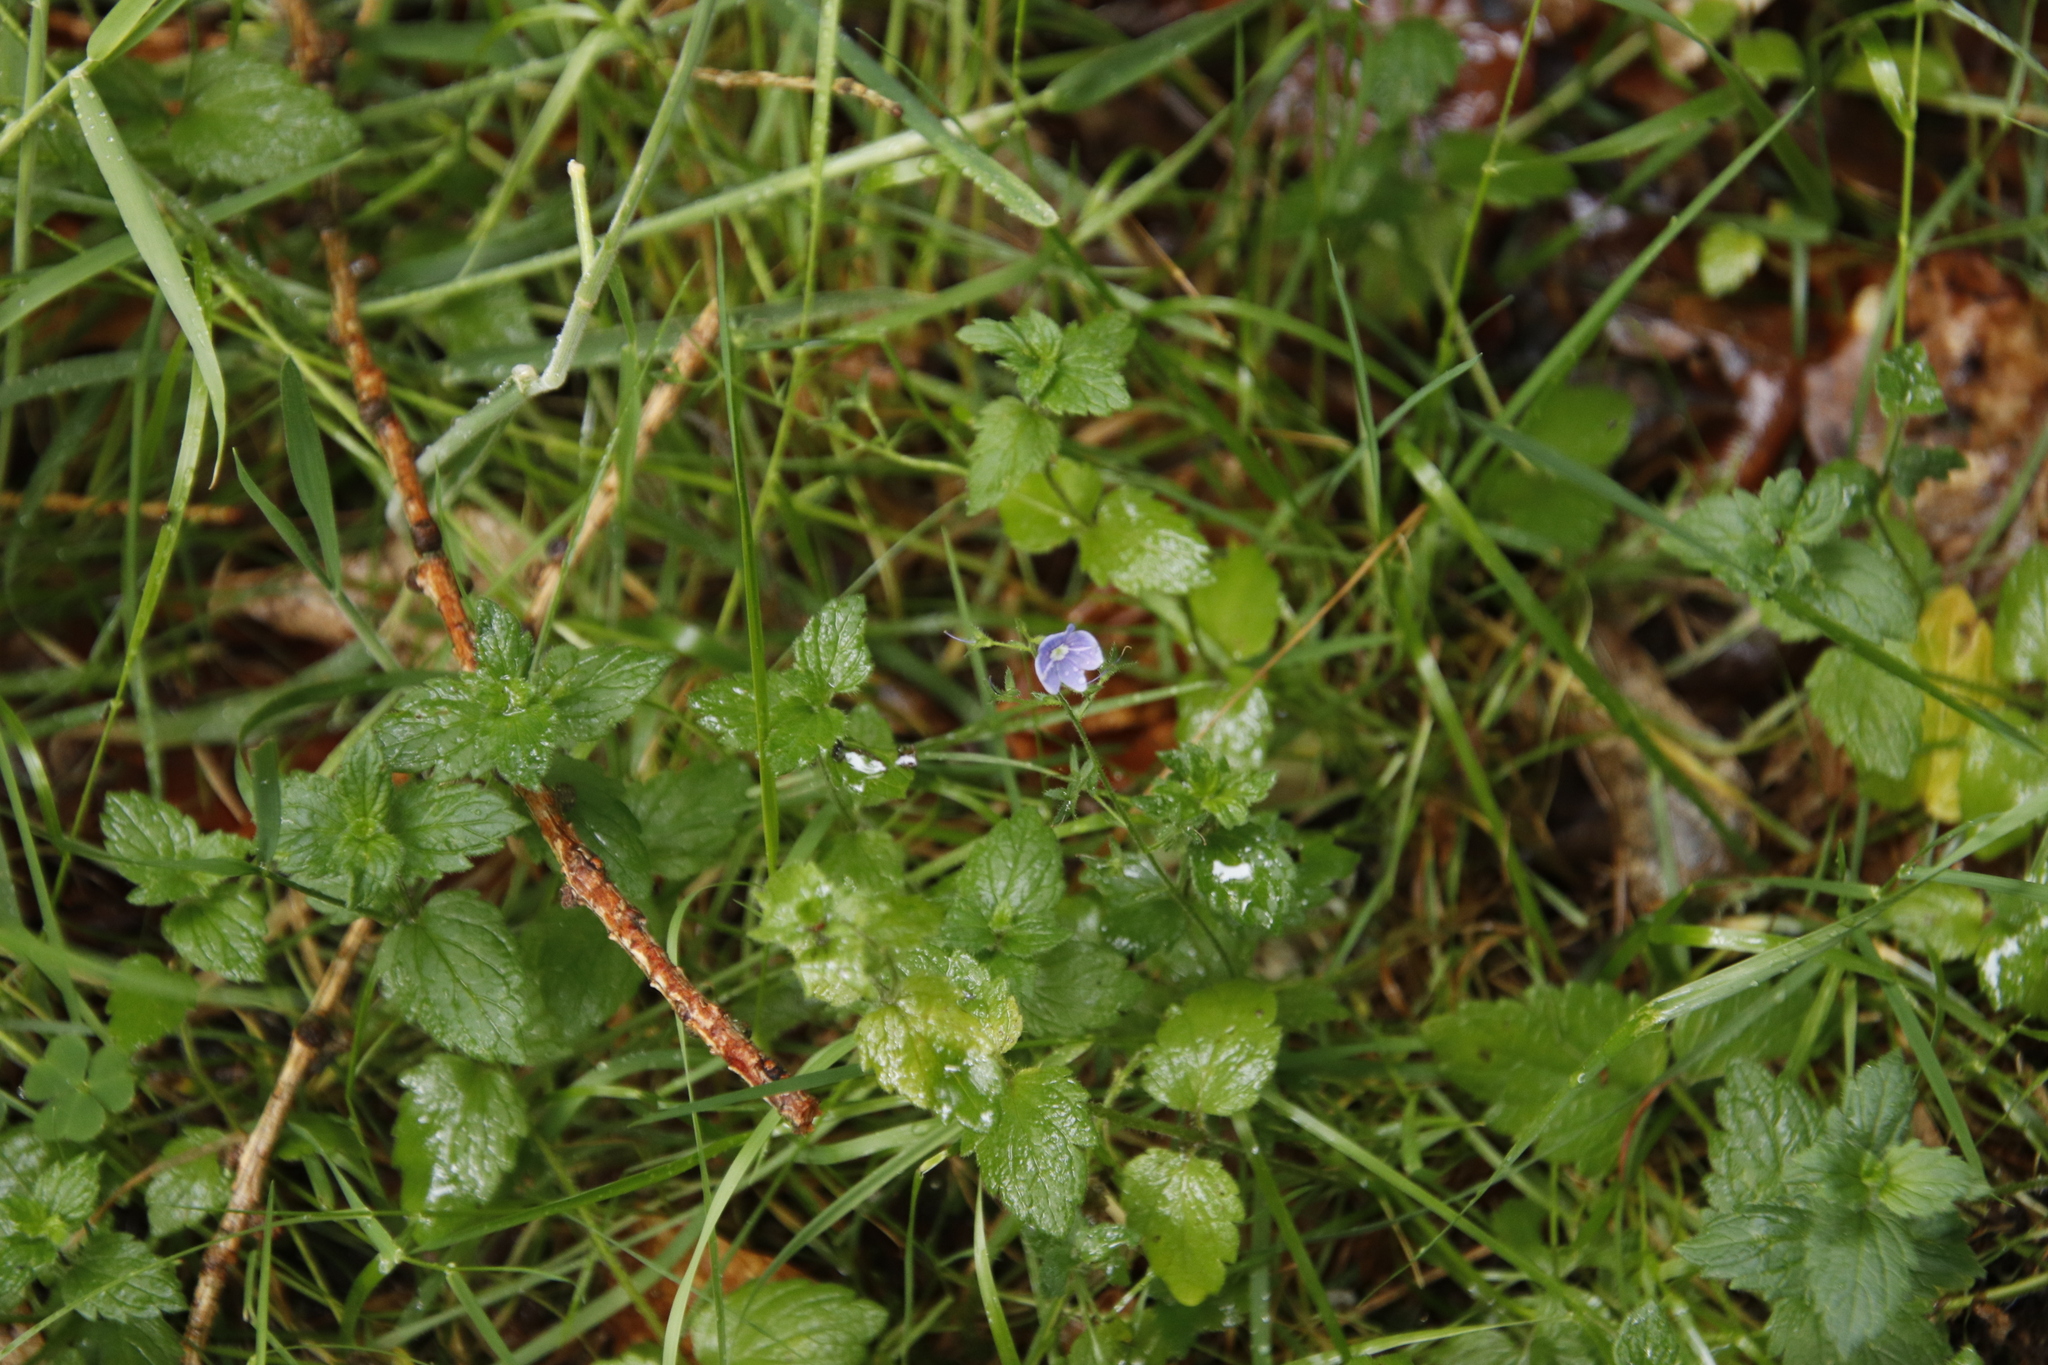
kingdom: Plantae
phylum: Tracheophyta
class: Magnoliopsida
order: Lamiales
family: Plantaginaceae
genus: Veronica
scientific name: Veronica chamaedrys
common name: Germander speedwell
